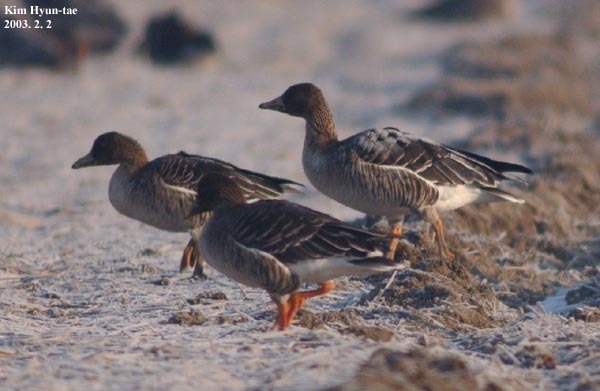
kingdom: Animalia
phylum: Chordata
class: Aves
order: Anseriformes
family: Anatidae
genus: Anser
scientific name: Anser fabalis
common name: Bean goose
